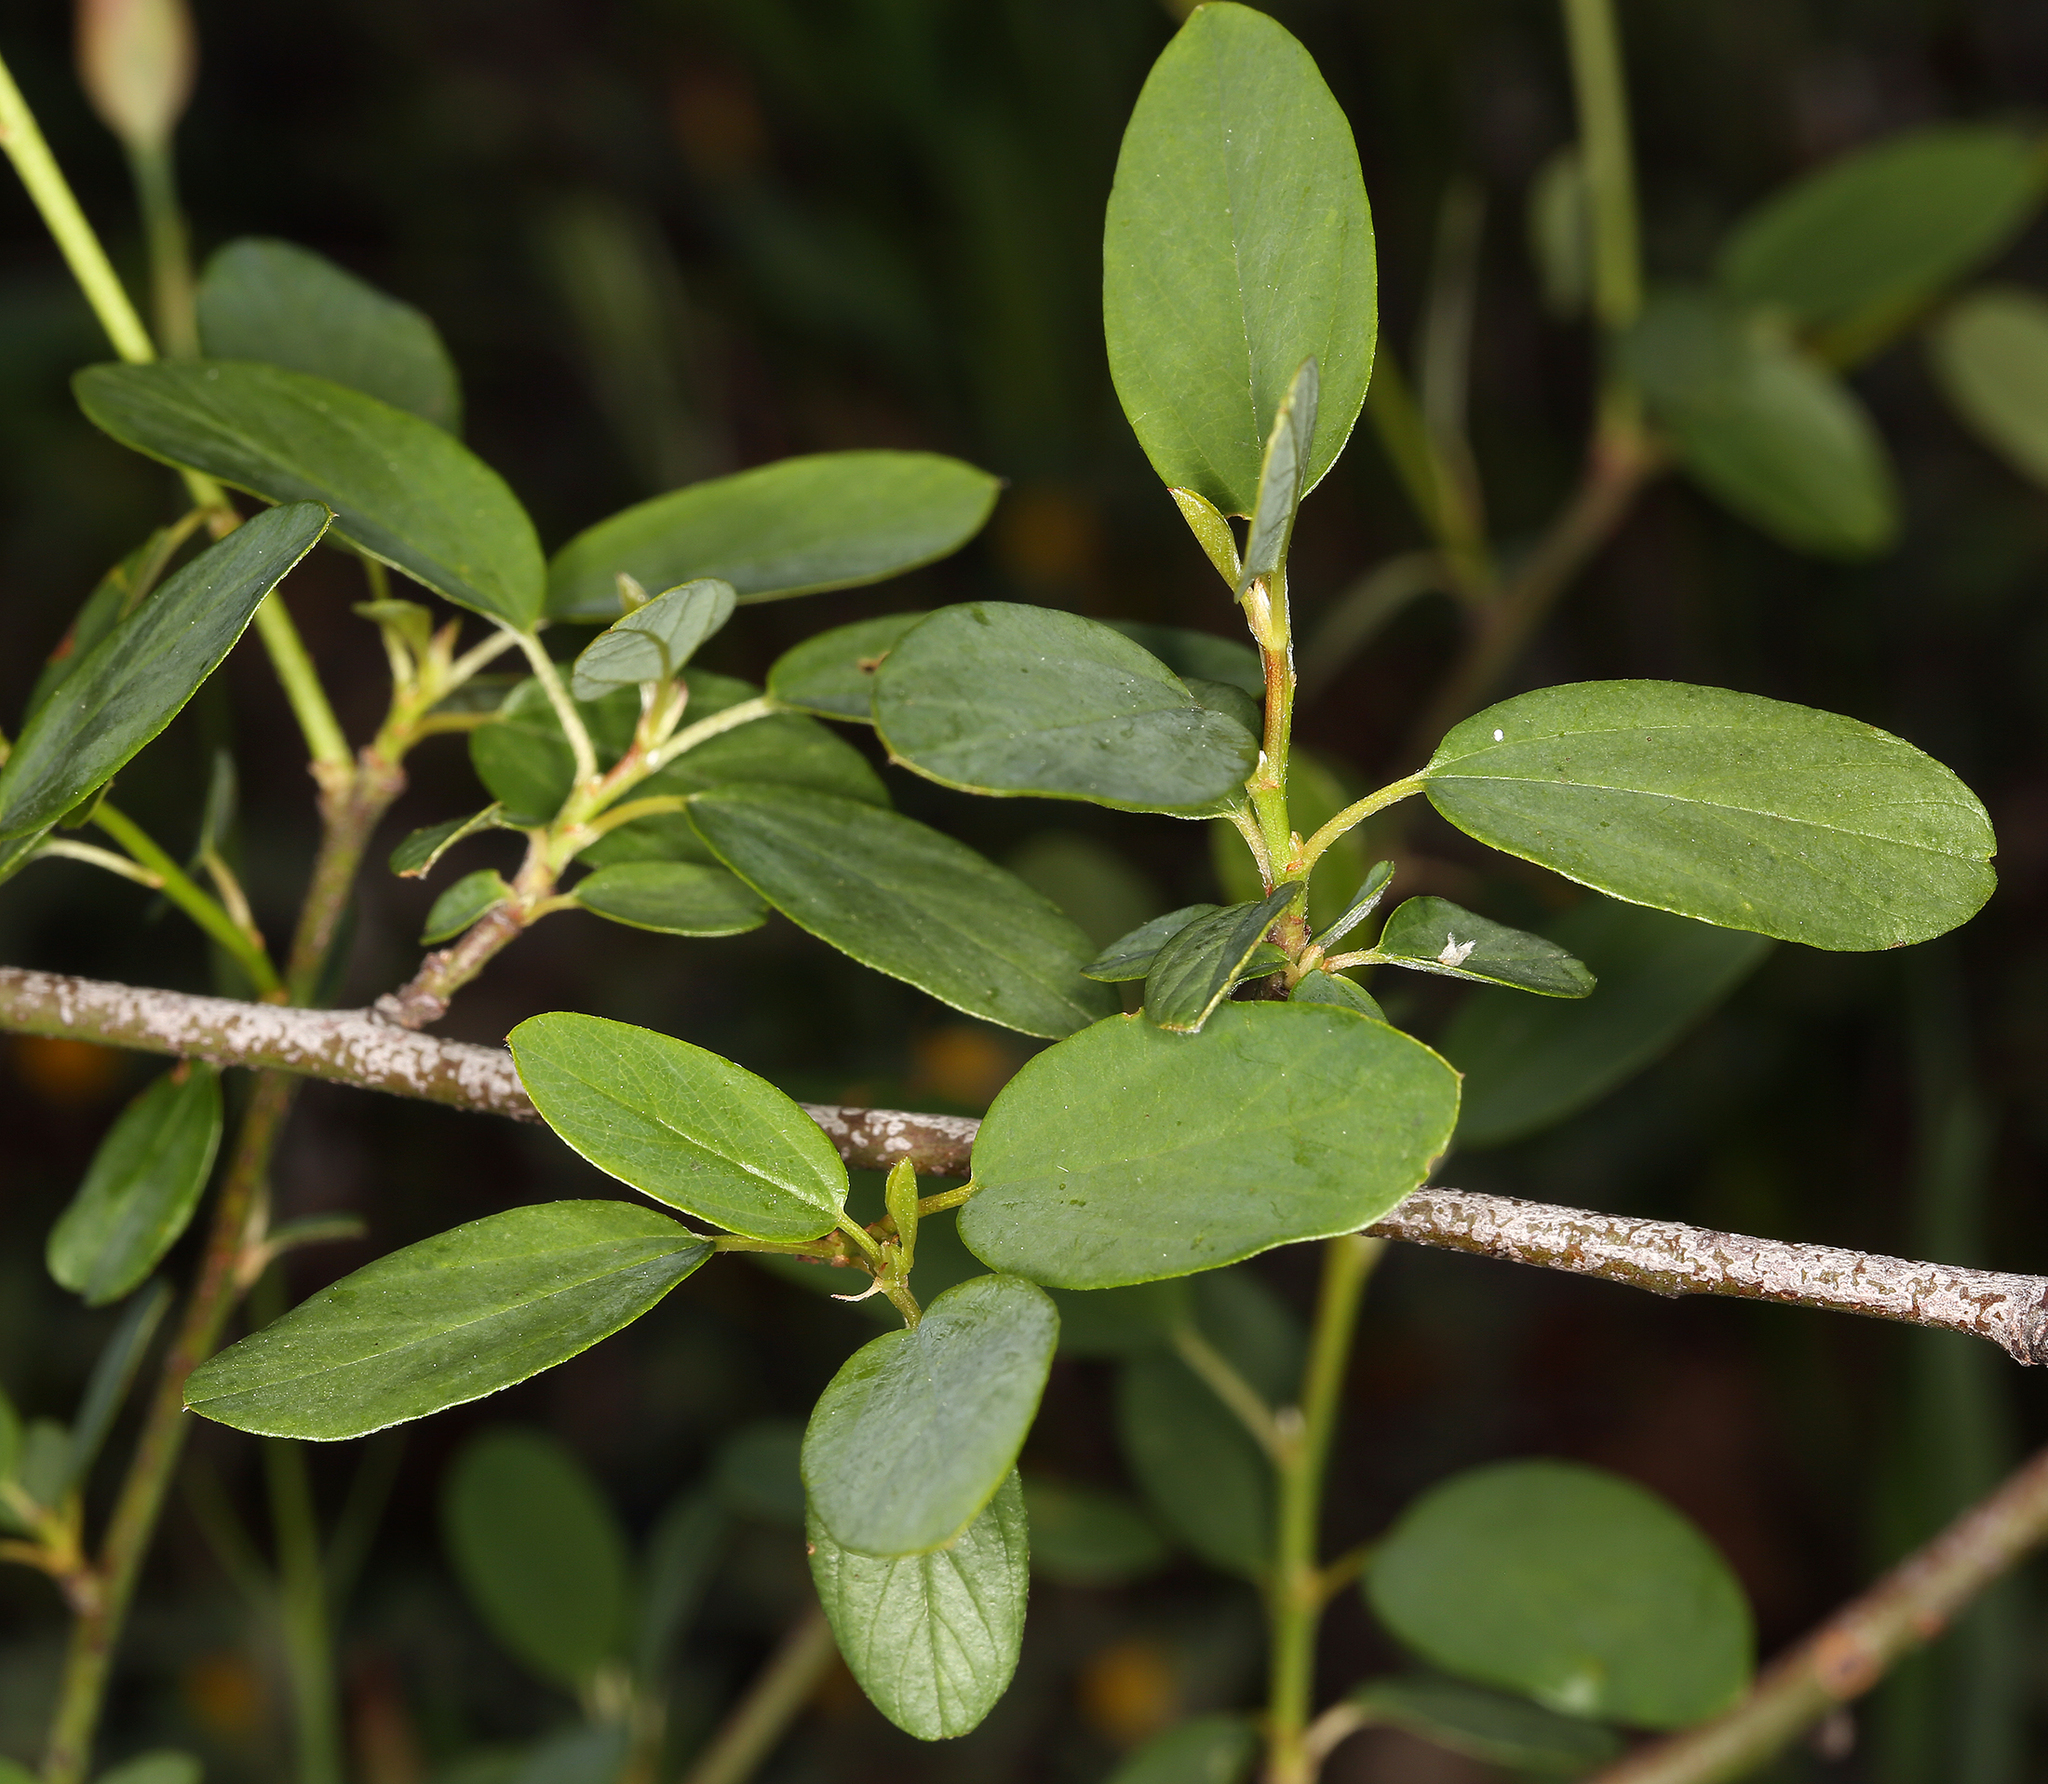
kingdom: Plantae
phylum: Tracheophyta
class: Magnoliopsida
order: Rosales
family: Rhamnaceae
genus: Ceanothus
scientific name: Ceanothus integerrimus
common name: Deerbrush ceanothus
